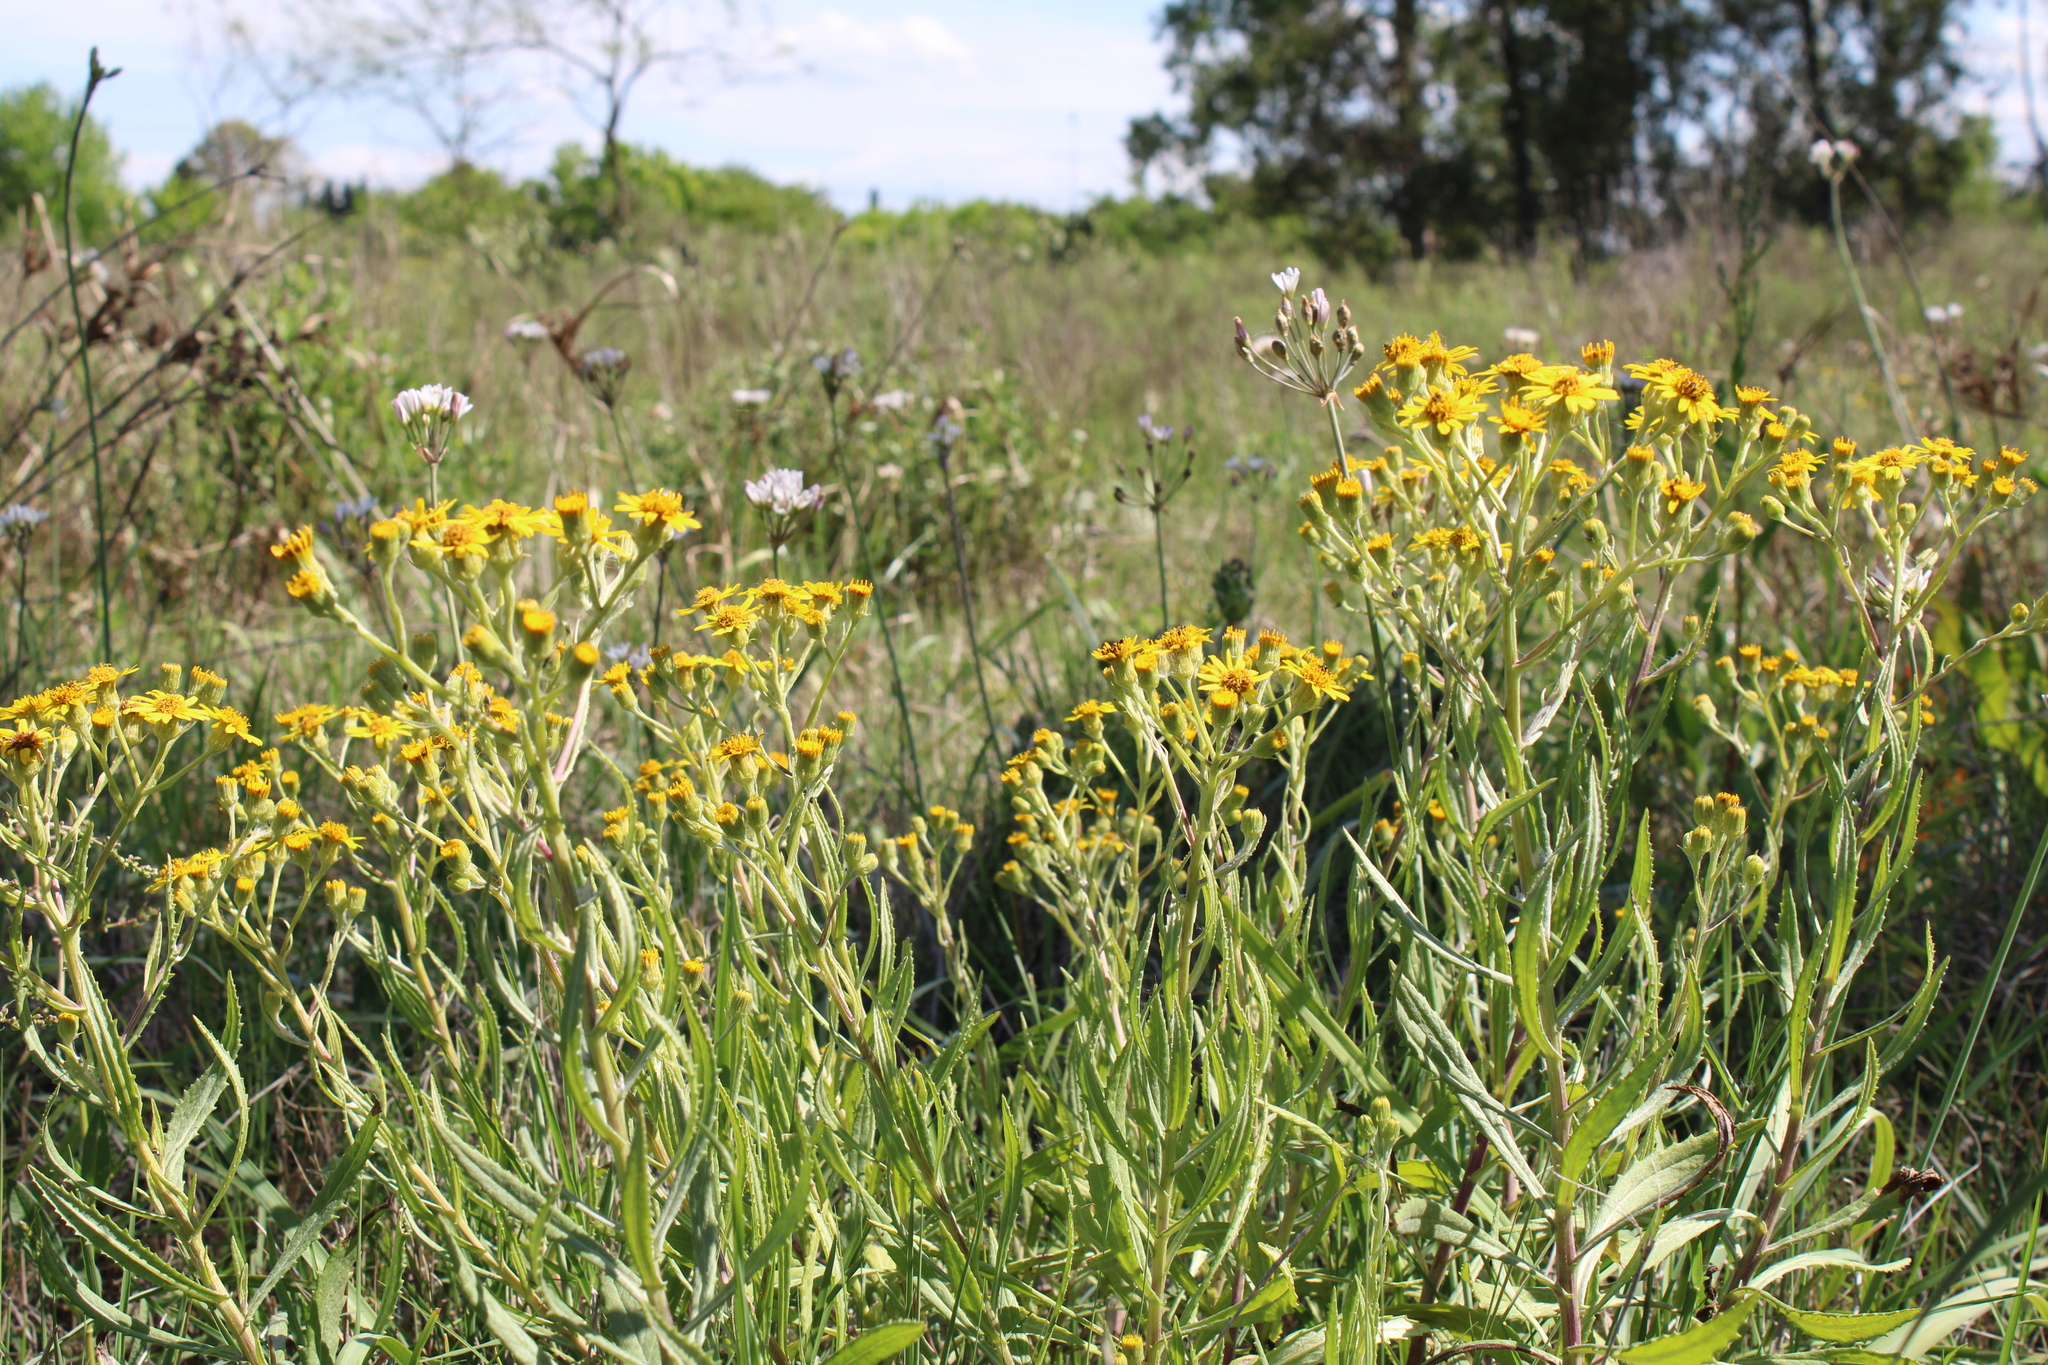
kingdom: Plantae
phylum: Tracheophyta
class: Magnoliopsida
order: Asterales
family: Asteraceae
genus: Senecio
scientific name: Senecio pterophorus
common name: Shoddy ragwort
